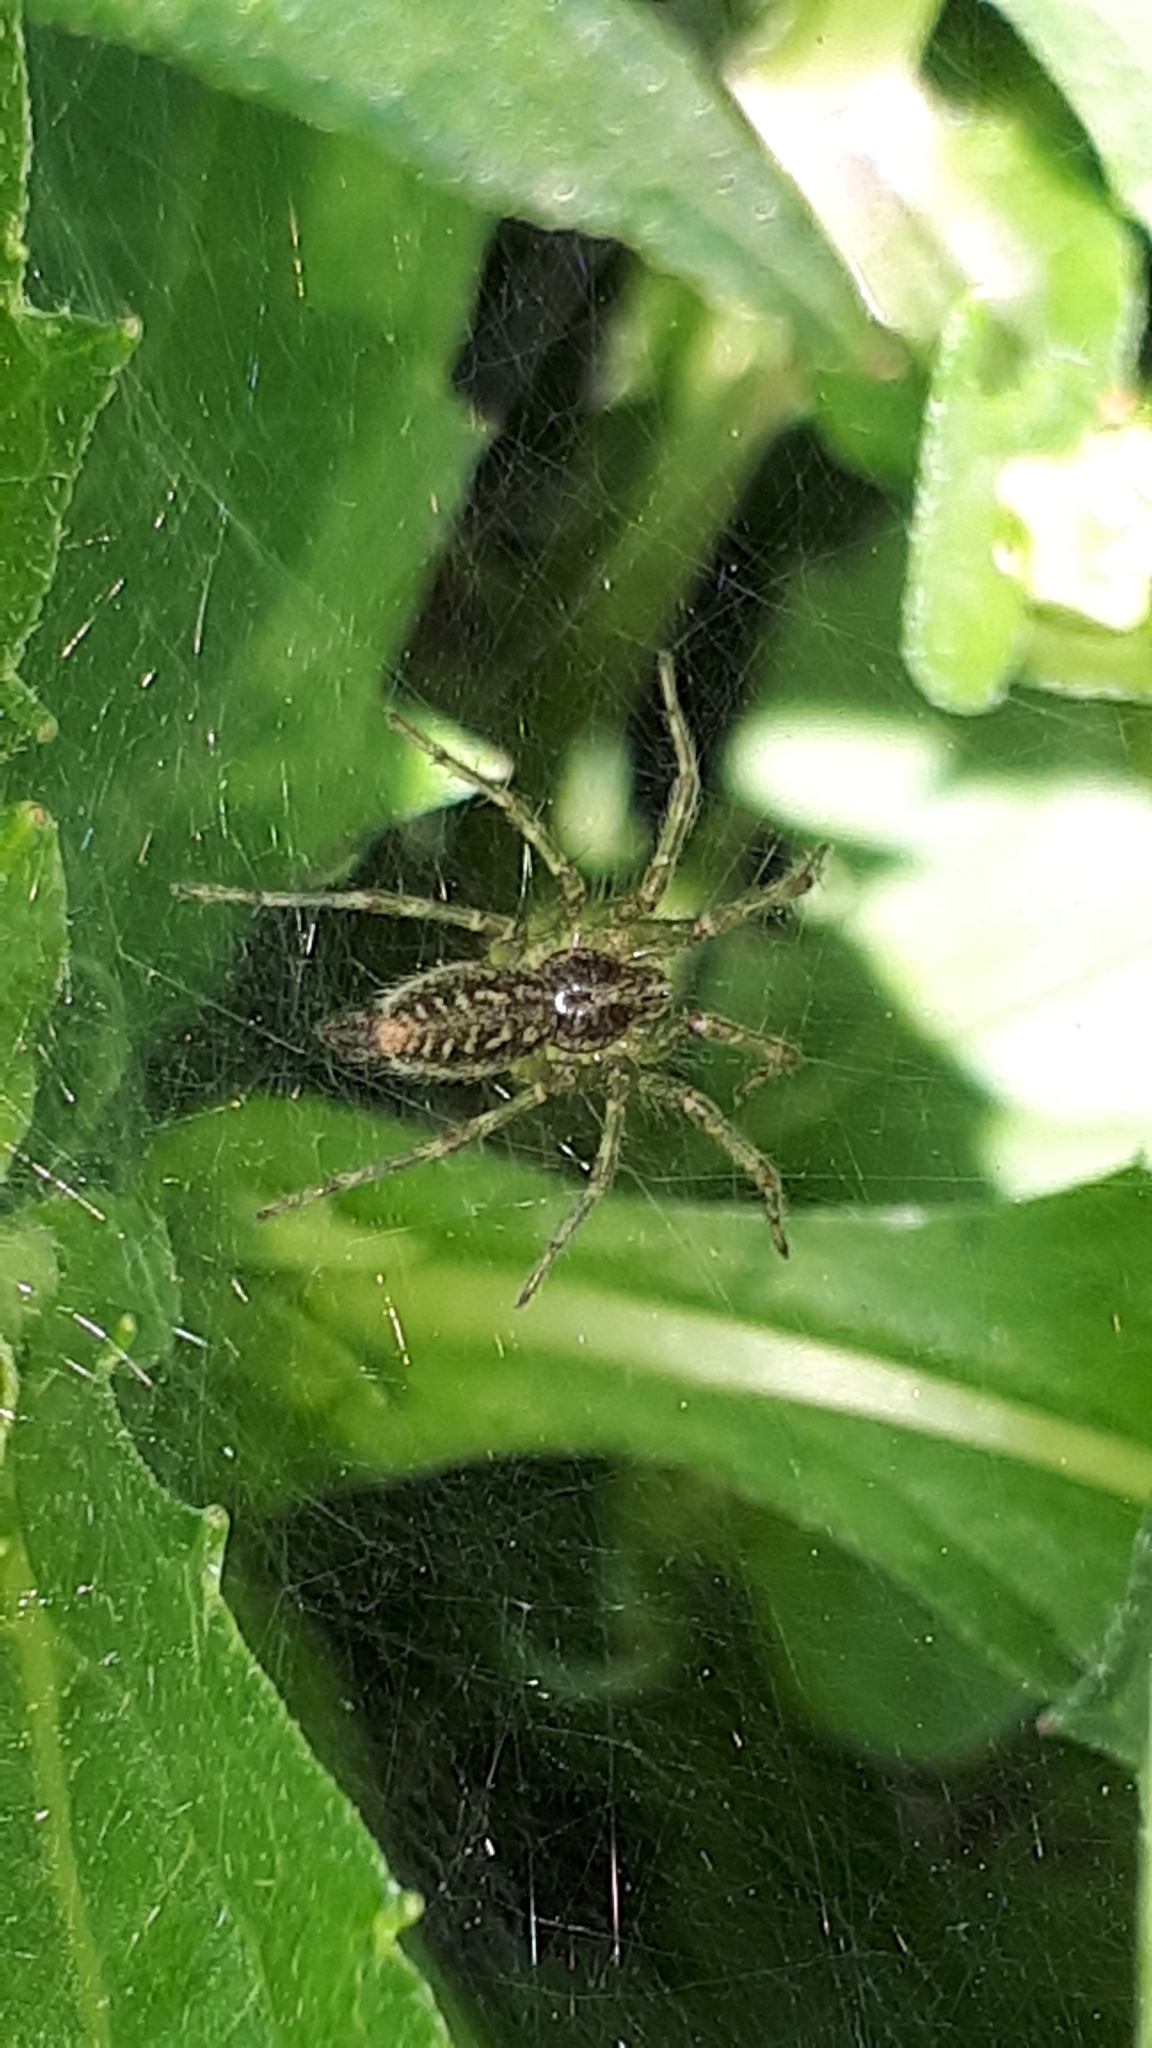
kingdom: Animalia
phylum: Arthropoda
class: Arachnida
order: Araneae
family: Agelenidae
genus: Allagelena
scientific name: Allagelena gracilens
